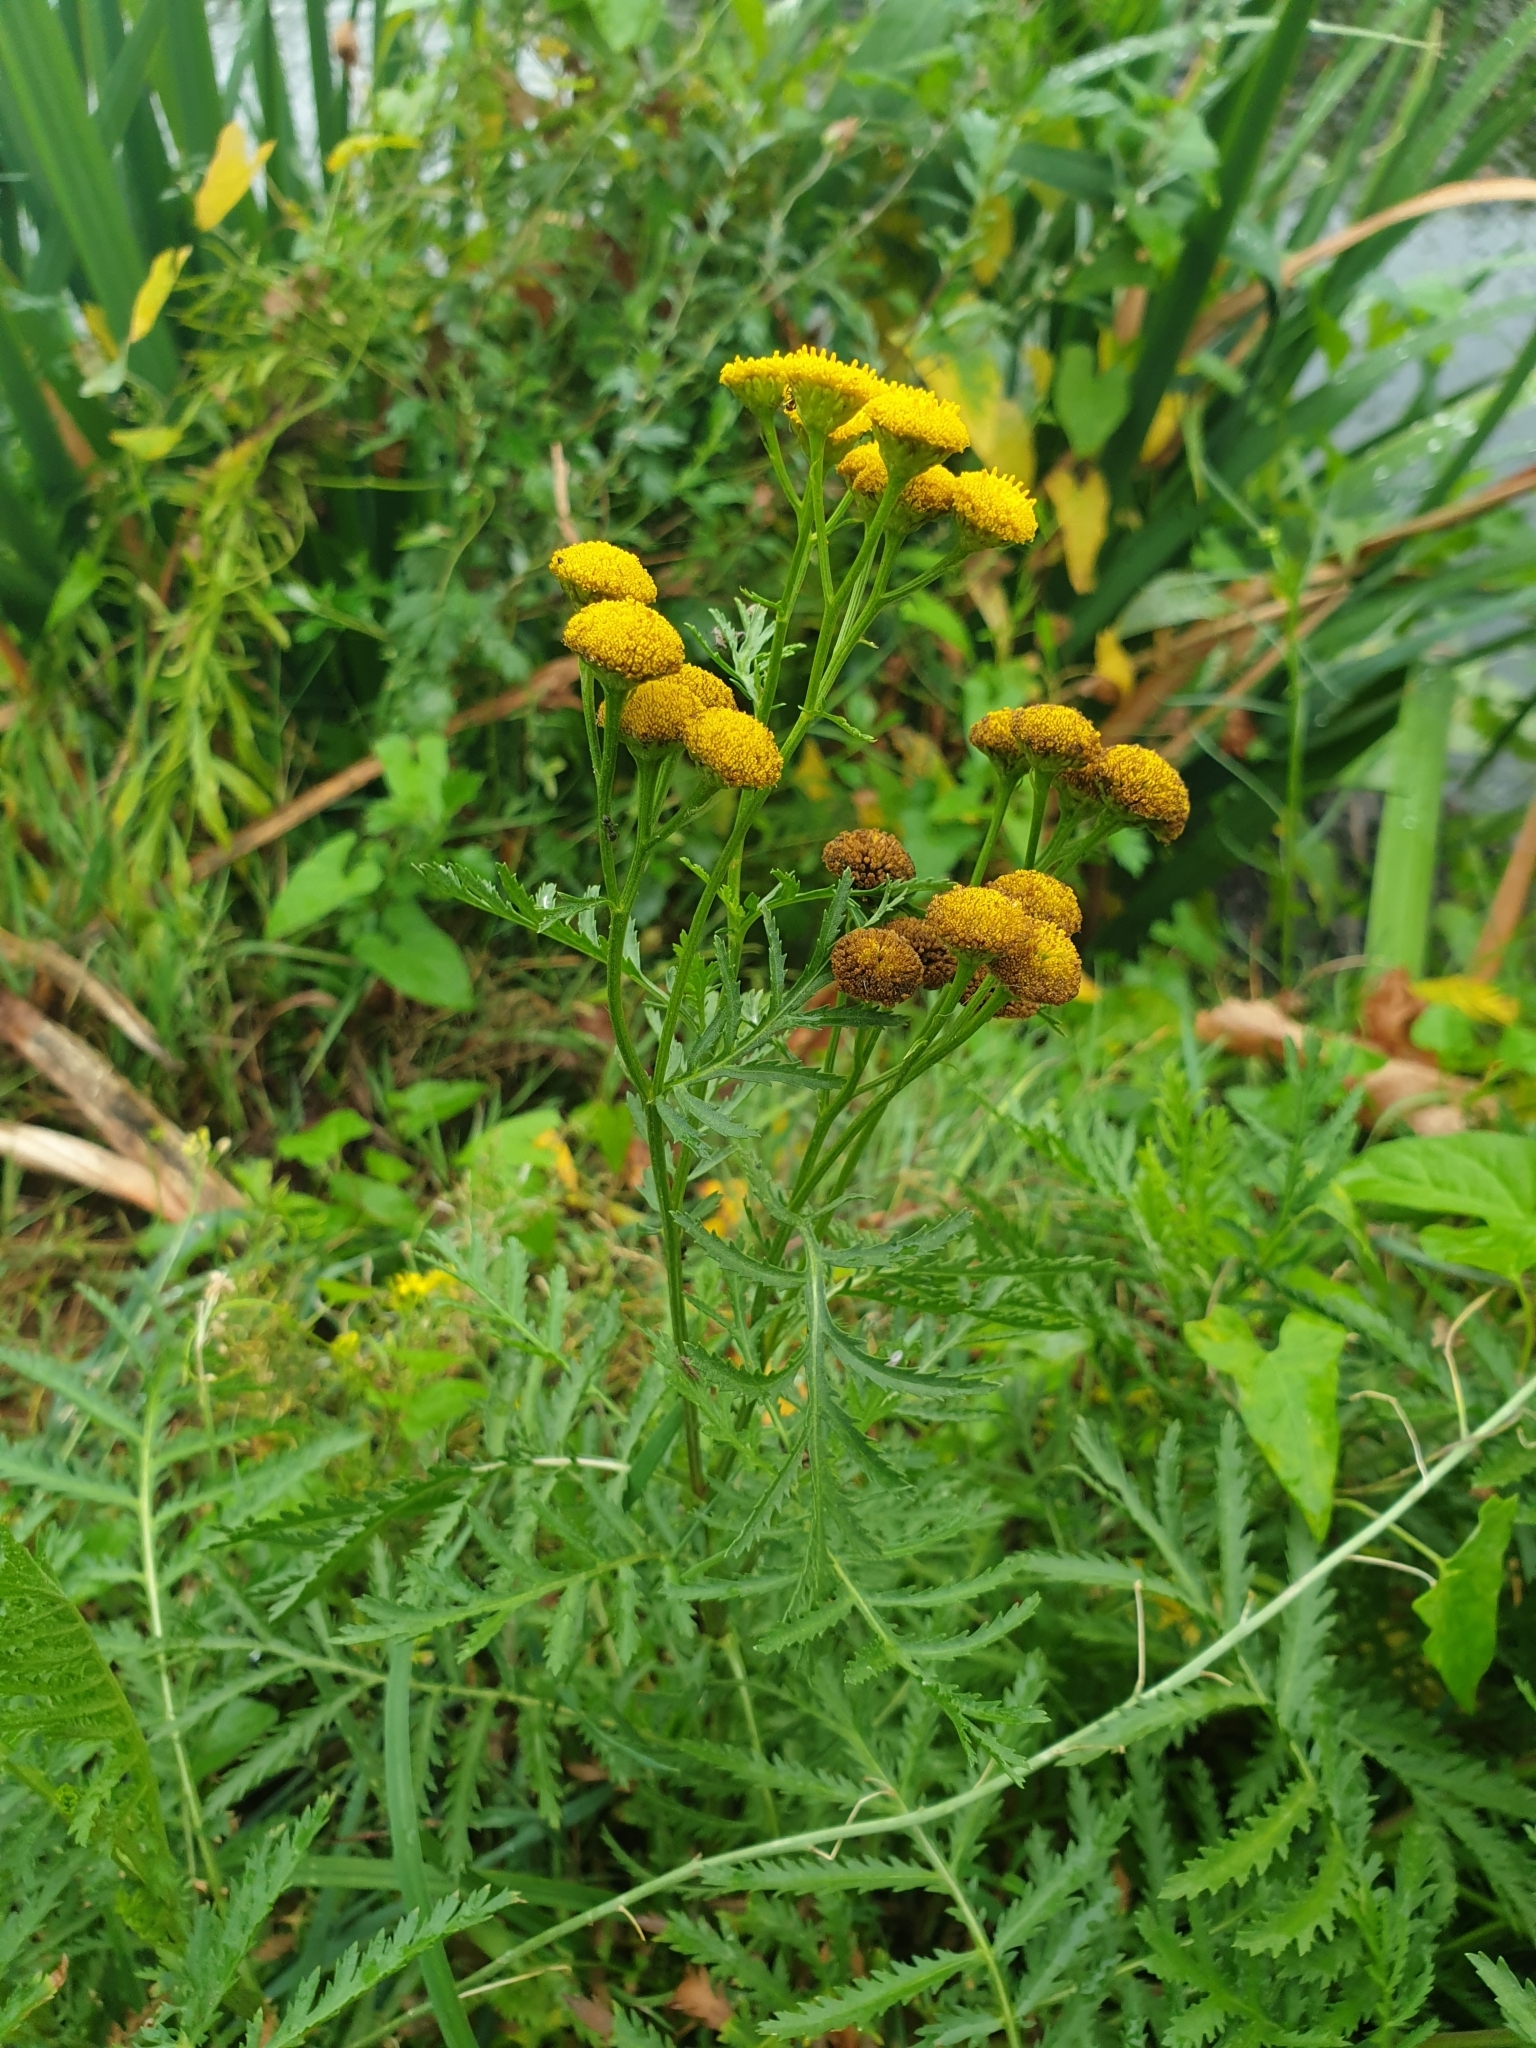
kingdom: Plantae
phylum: Tracheophyta
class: Magnoliopsida
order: Asterales
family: Asteraceae
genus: Tanacetum
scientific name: Tanacetum vulgare
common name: Common tansy
